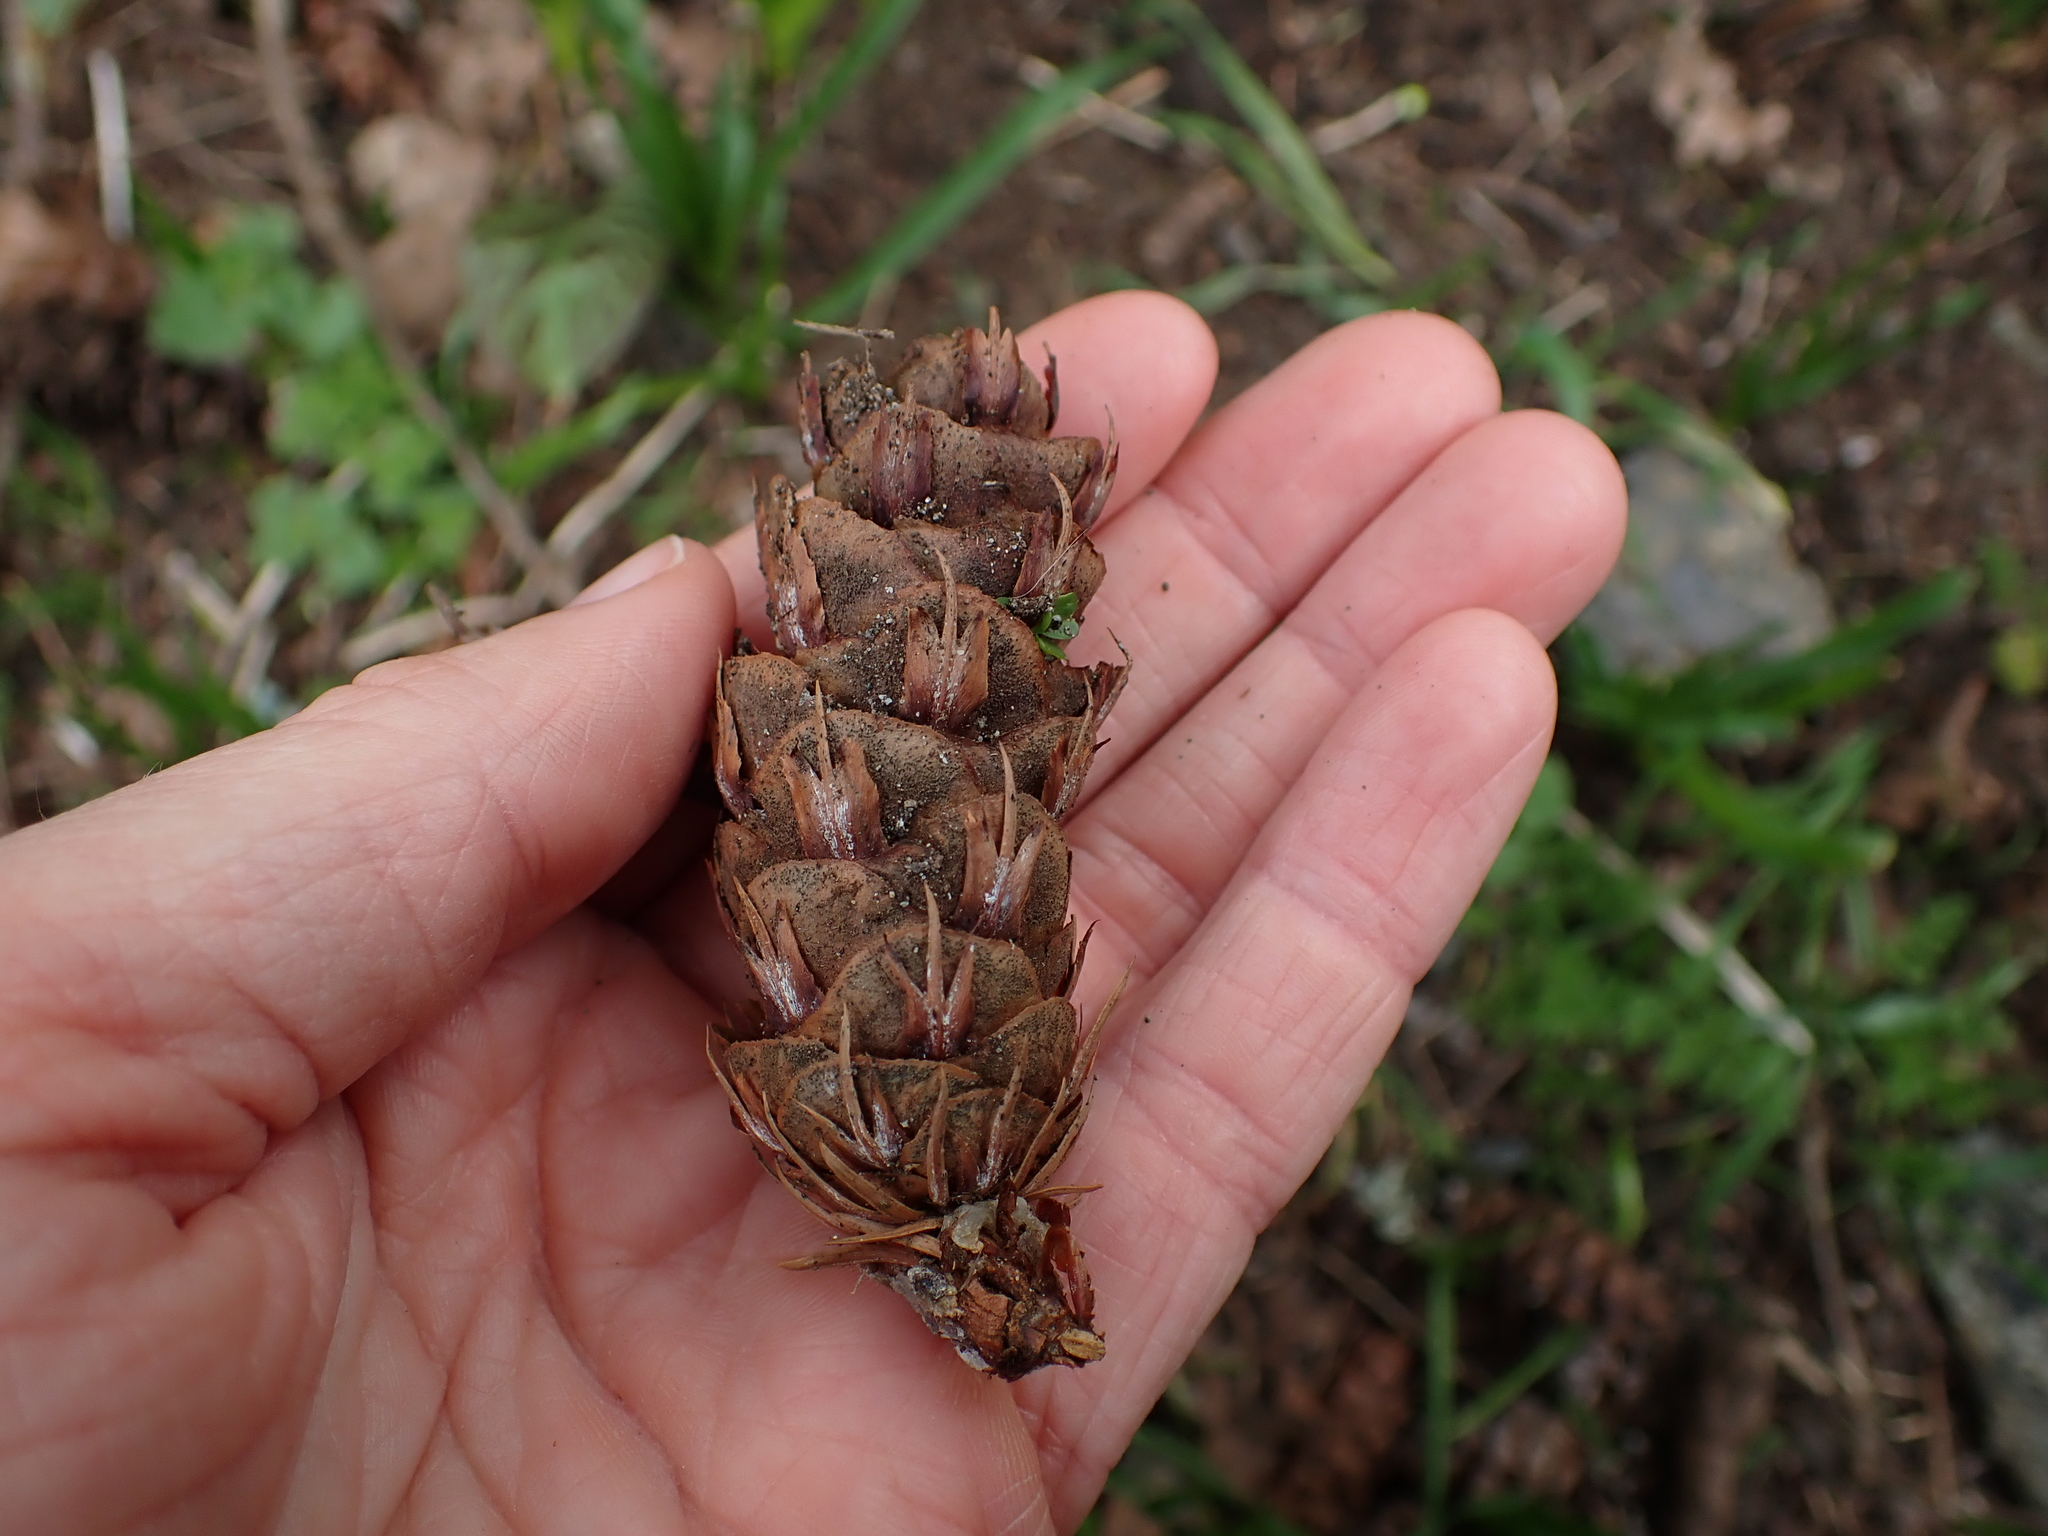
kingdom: Plantae
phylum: Tracheophyta
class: Pinopsida
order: Pinales
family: Pinaceae
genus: Pseudotsuga
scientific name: Pseudotsuga menziesii
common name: Douglas fir
